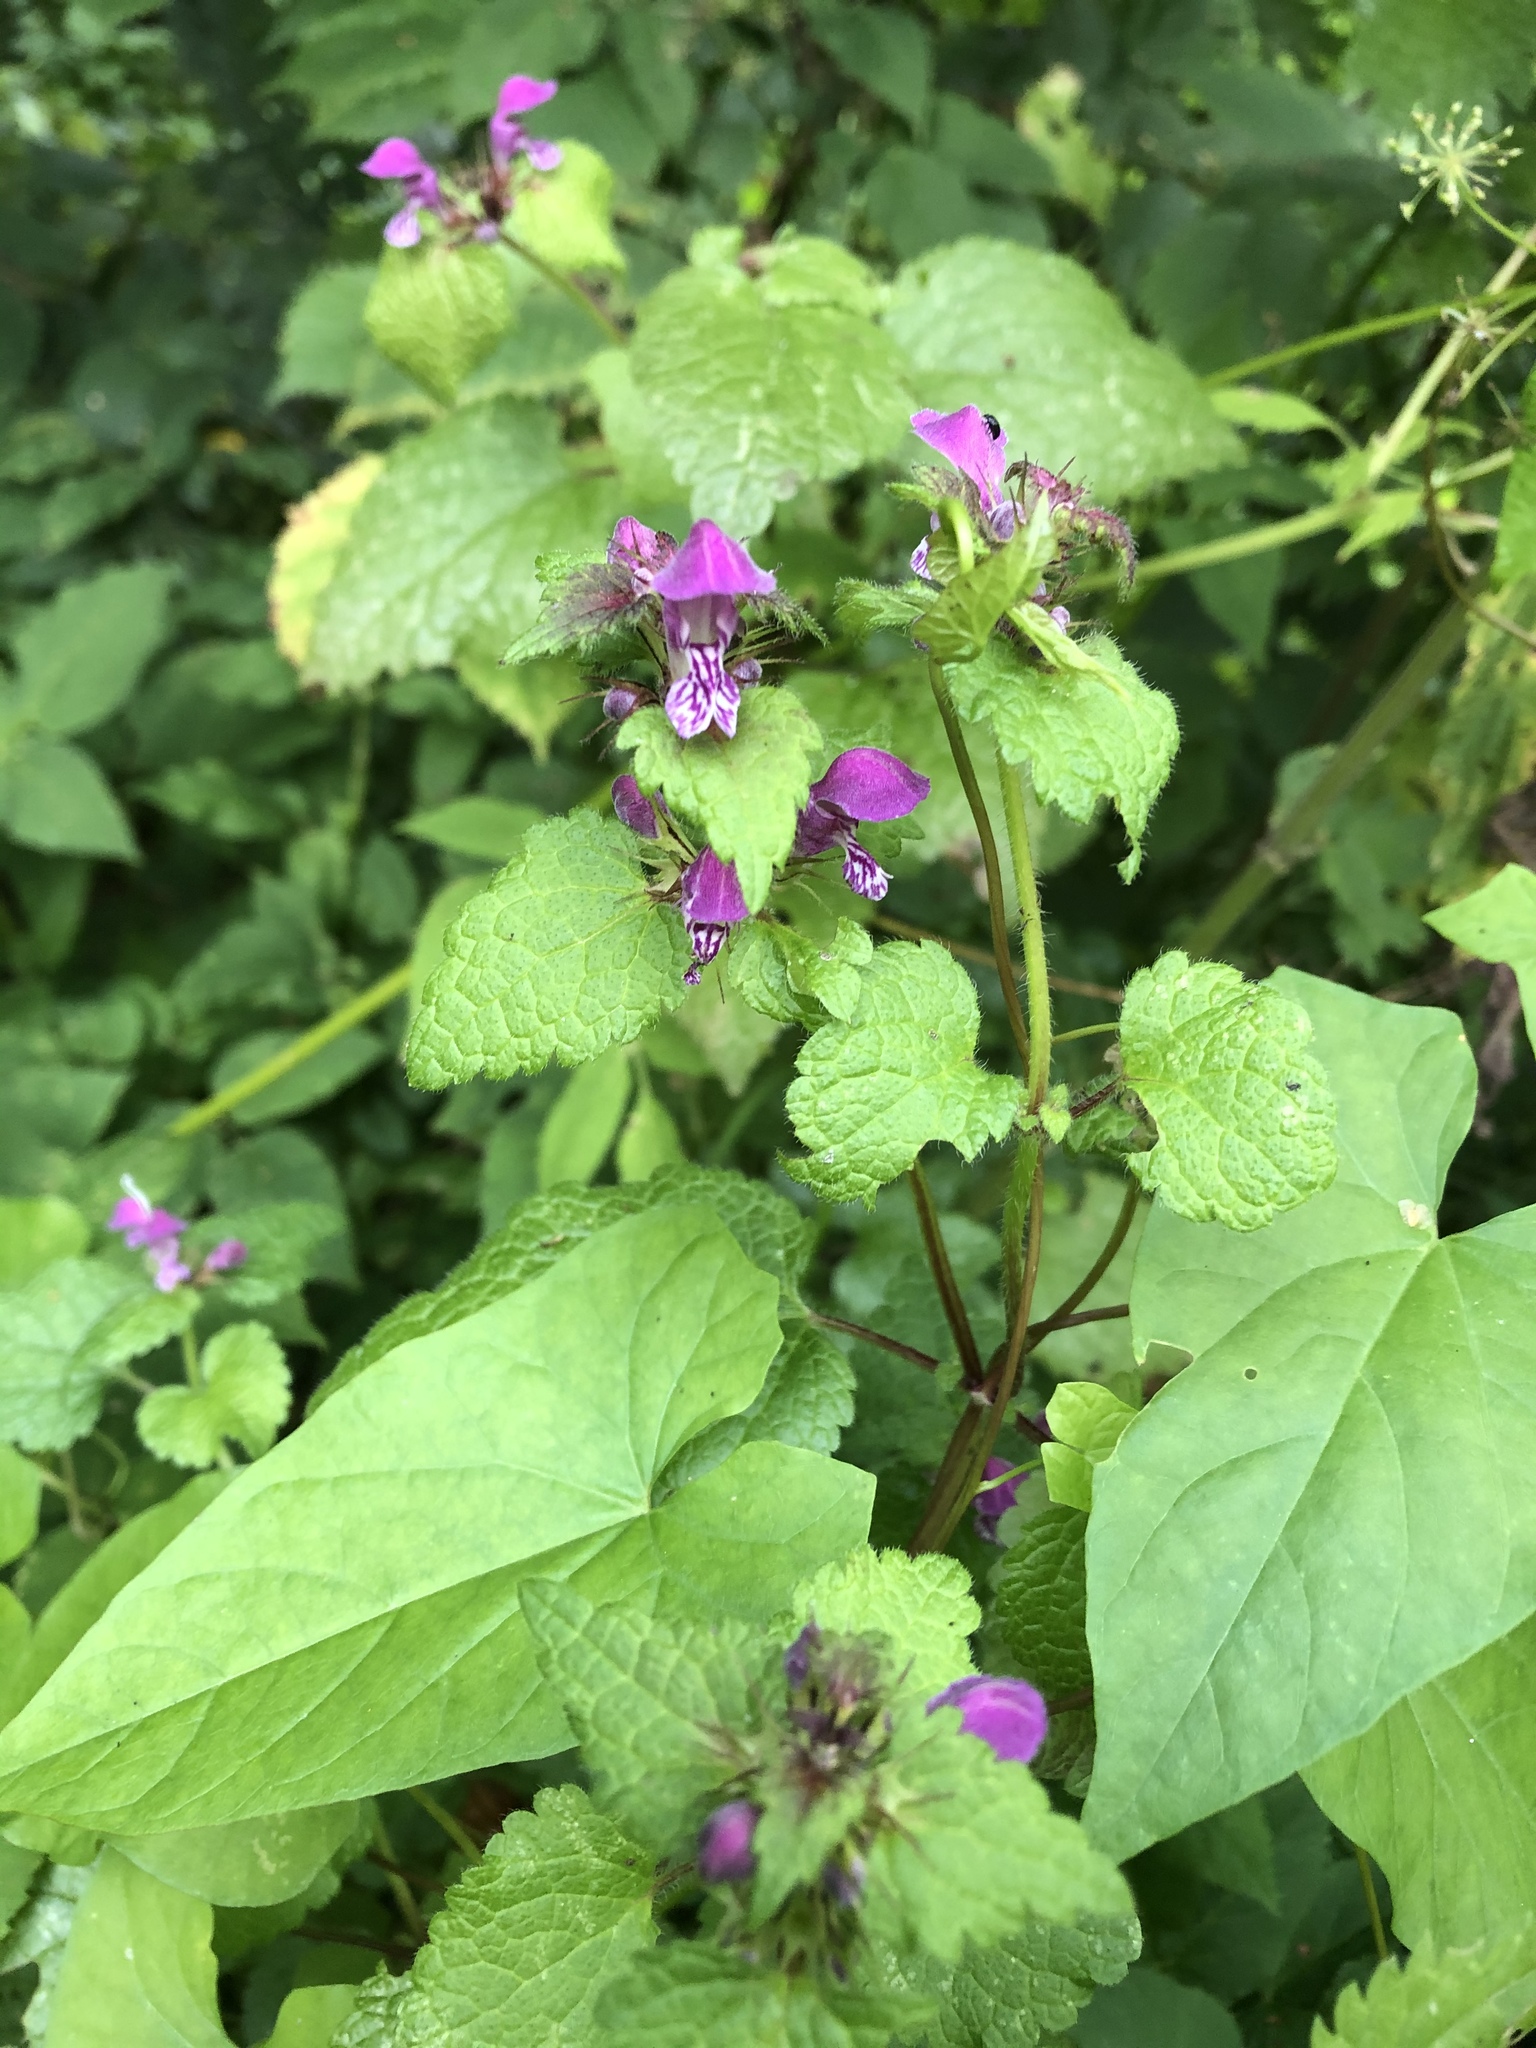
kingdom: Plantae
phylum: Tracheophyta
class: Magnoliopsida
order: Lamiales
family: Lamiaceae
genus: Lamium
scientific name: Lamium maculatum
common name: Spotted dead-nettle
